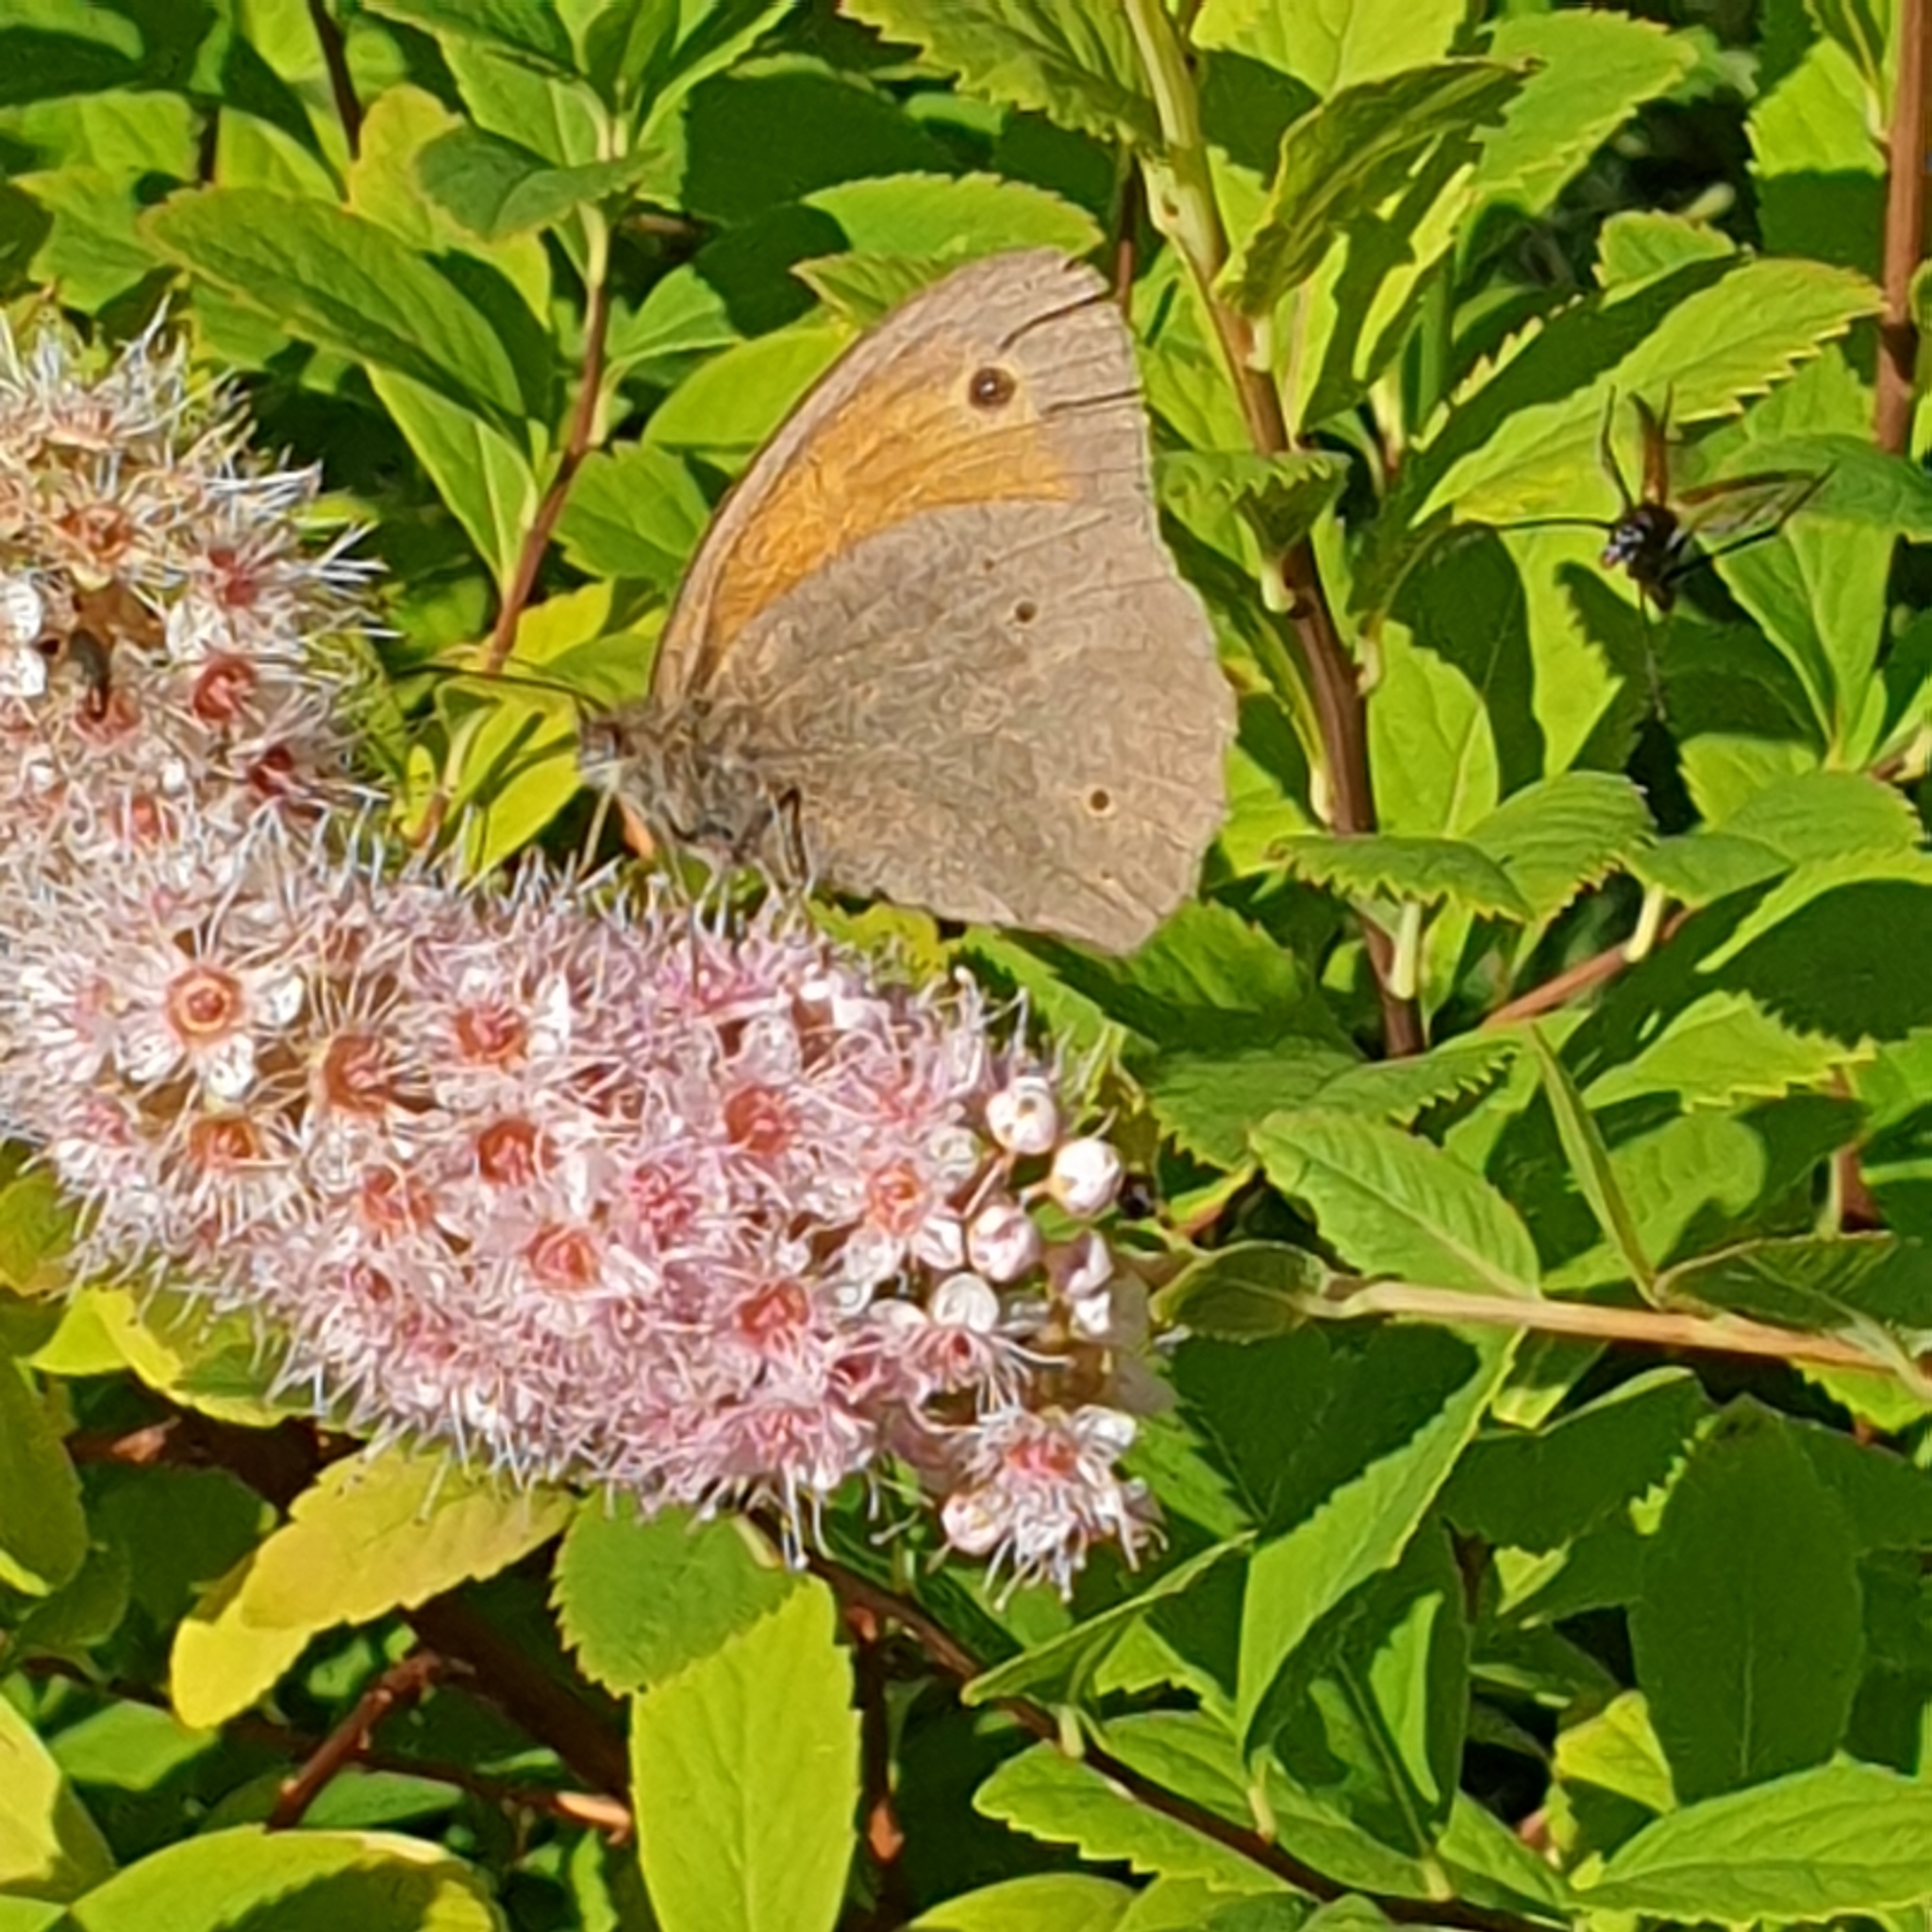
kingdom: Animalia
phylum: Arthropoda
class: Insecta
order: Lepidoptera
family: Nymphalidae
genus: Maniola
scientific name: Maniola jurtina
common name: Meadow brown
